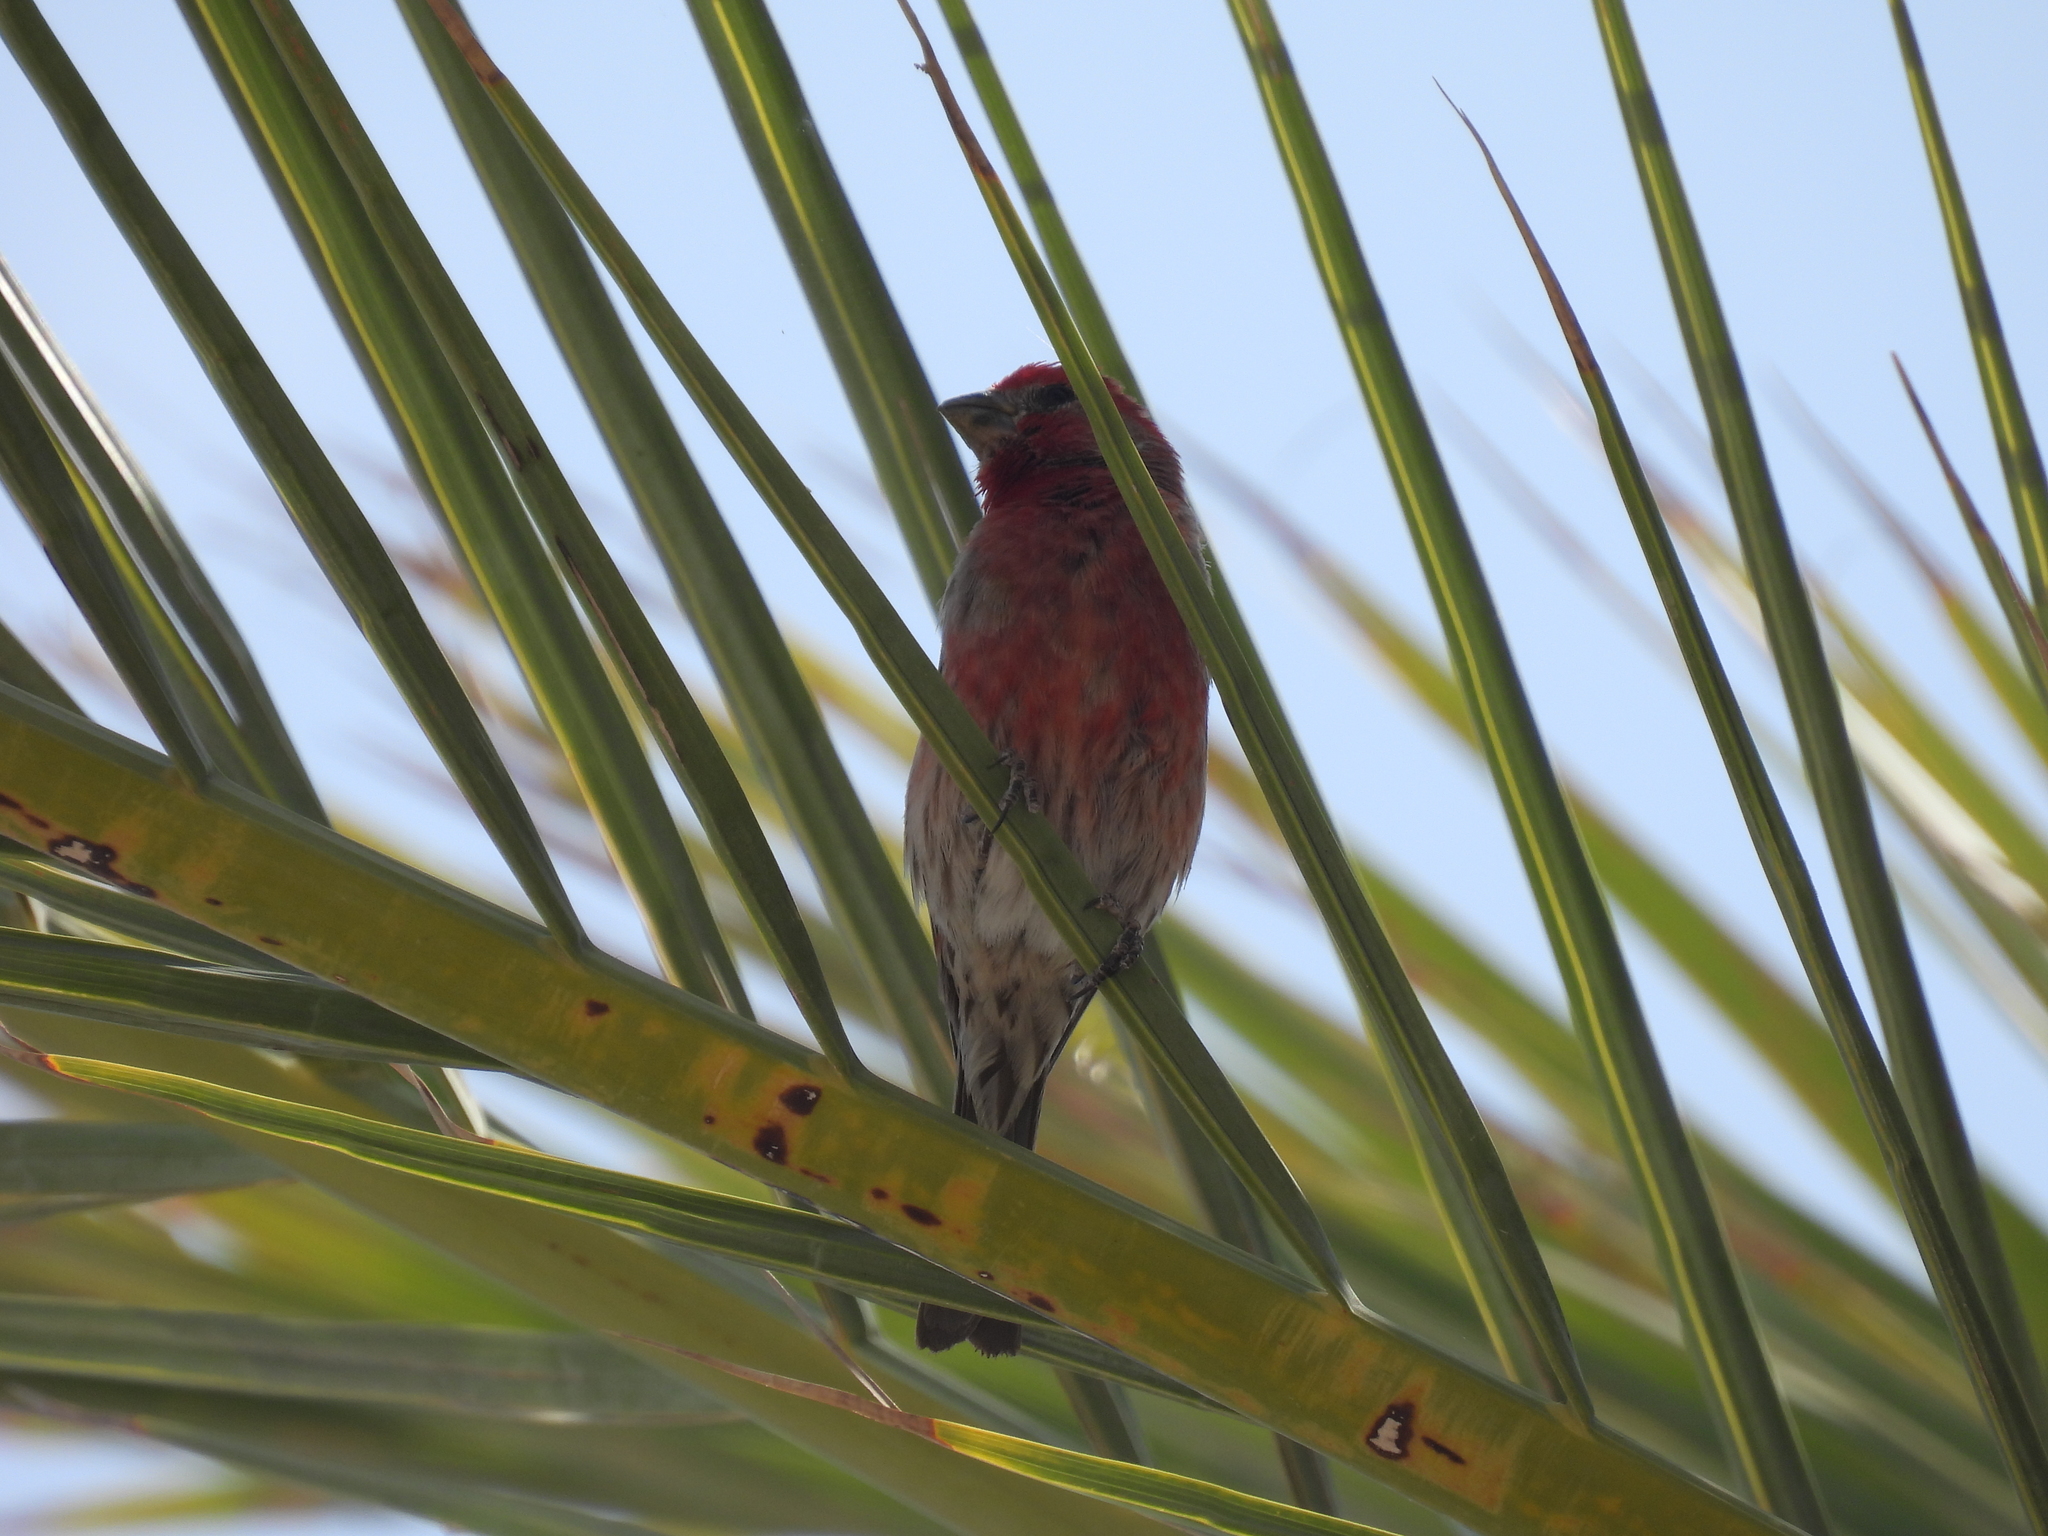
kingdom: Animalia
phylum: Chordata
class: Aves
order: Passeriformes
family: Fringillidae
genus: Haemorhous
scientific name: Haemorhous mexicanus
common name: House finch
